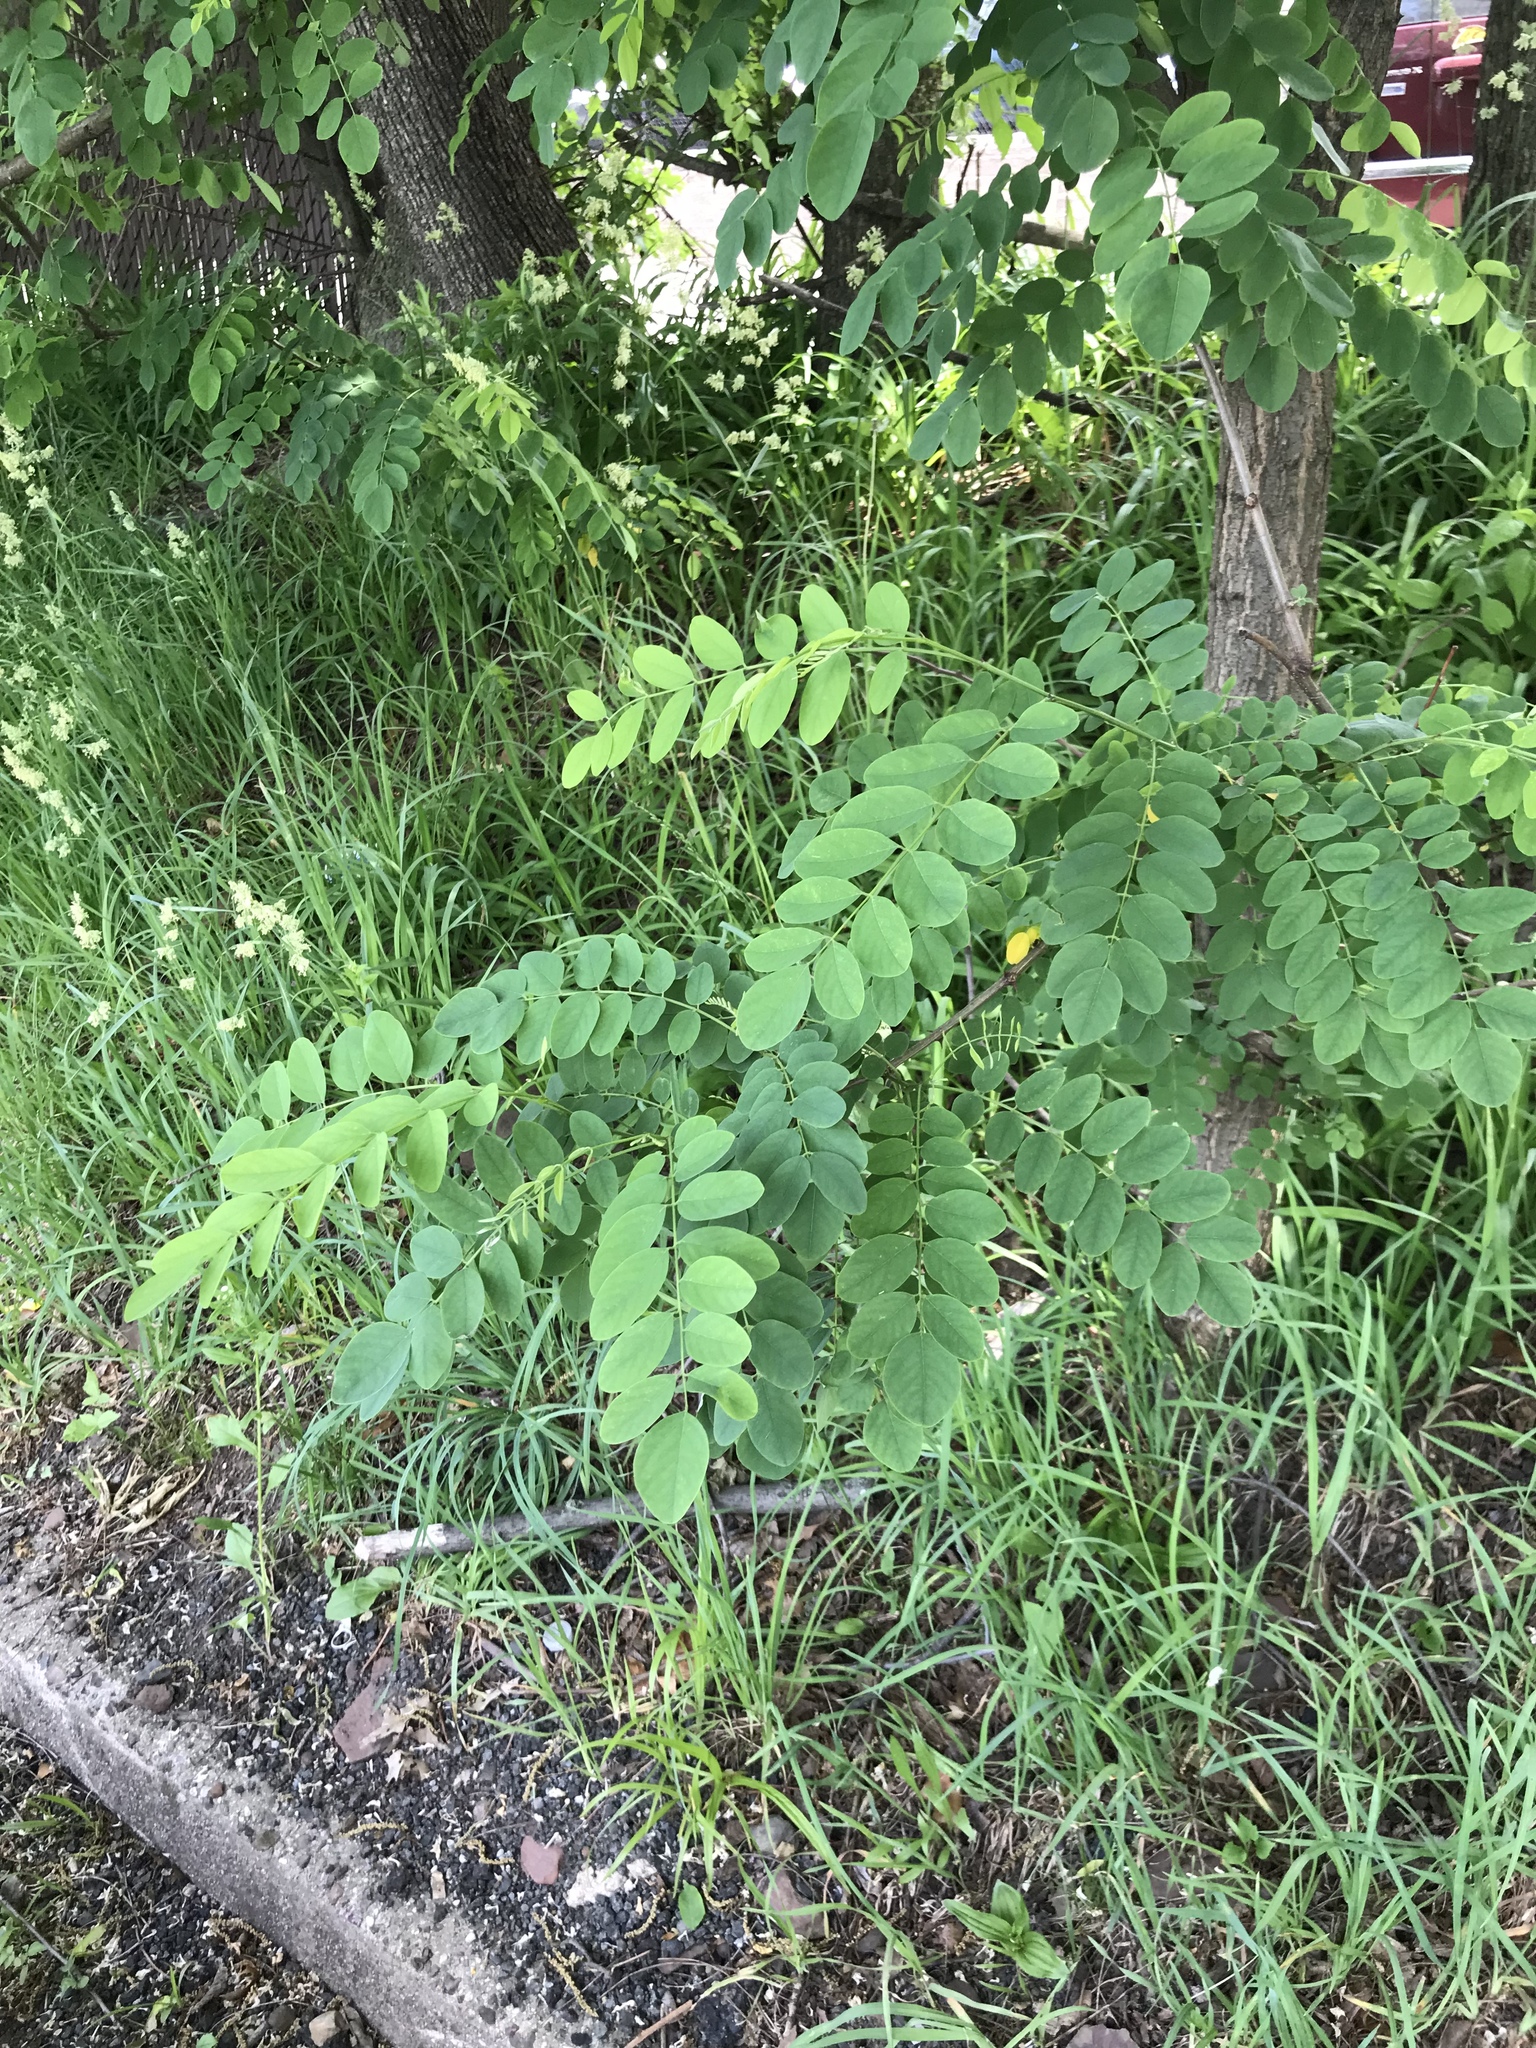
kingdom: Plantae
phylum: Tracheophyta
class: Magnoliopsida
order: Fabales
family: Fabaceae
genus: Robinia
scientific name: Robinia pseudoacacia
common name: Black locust
